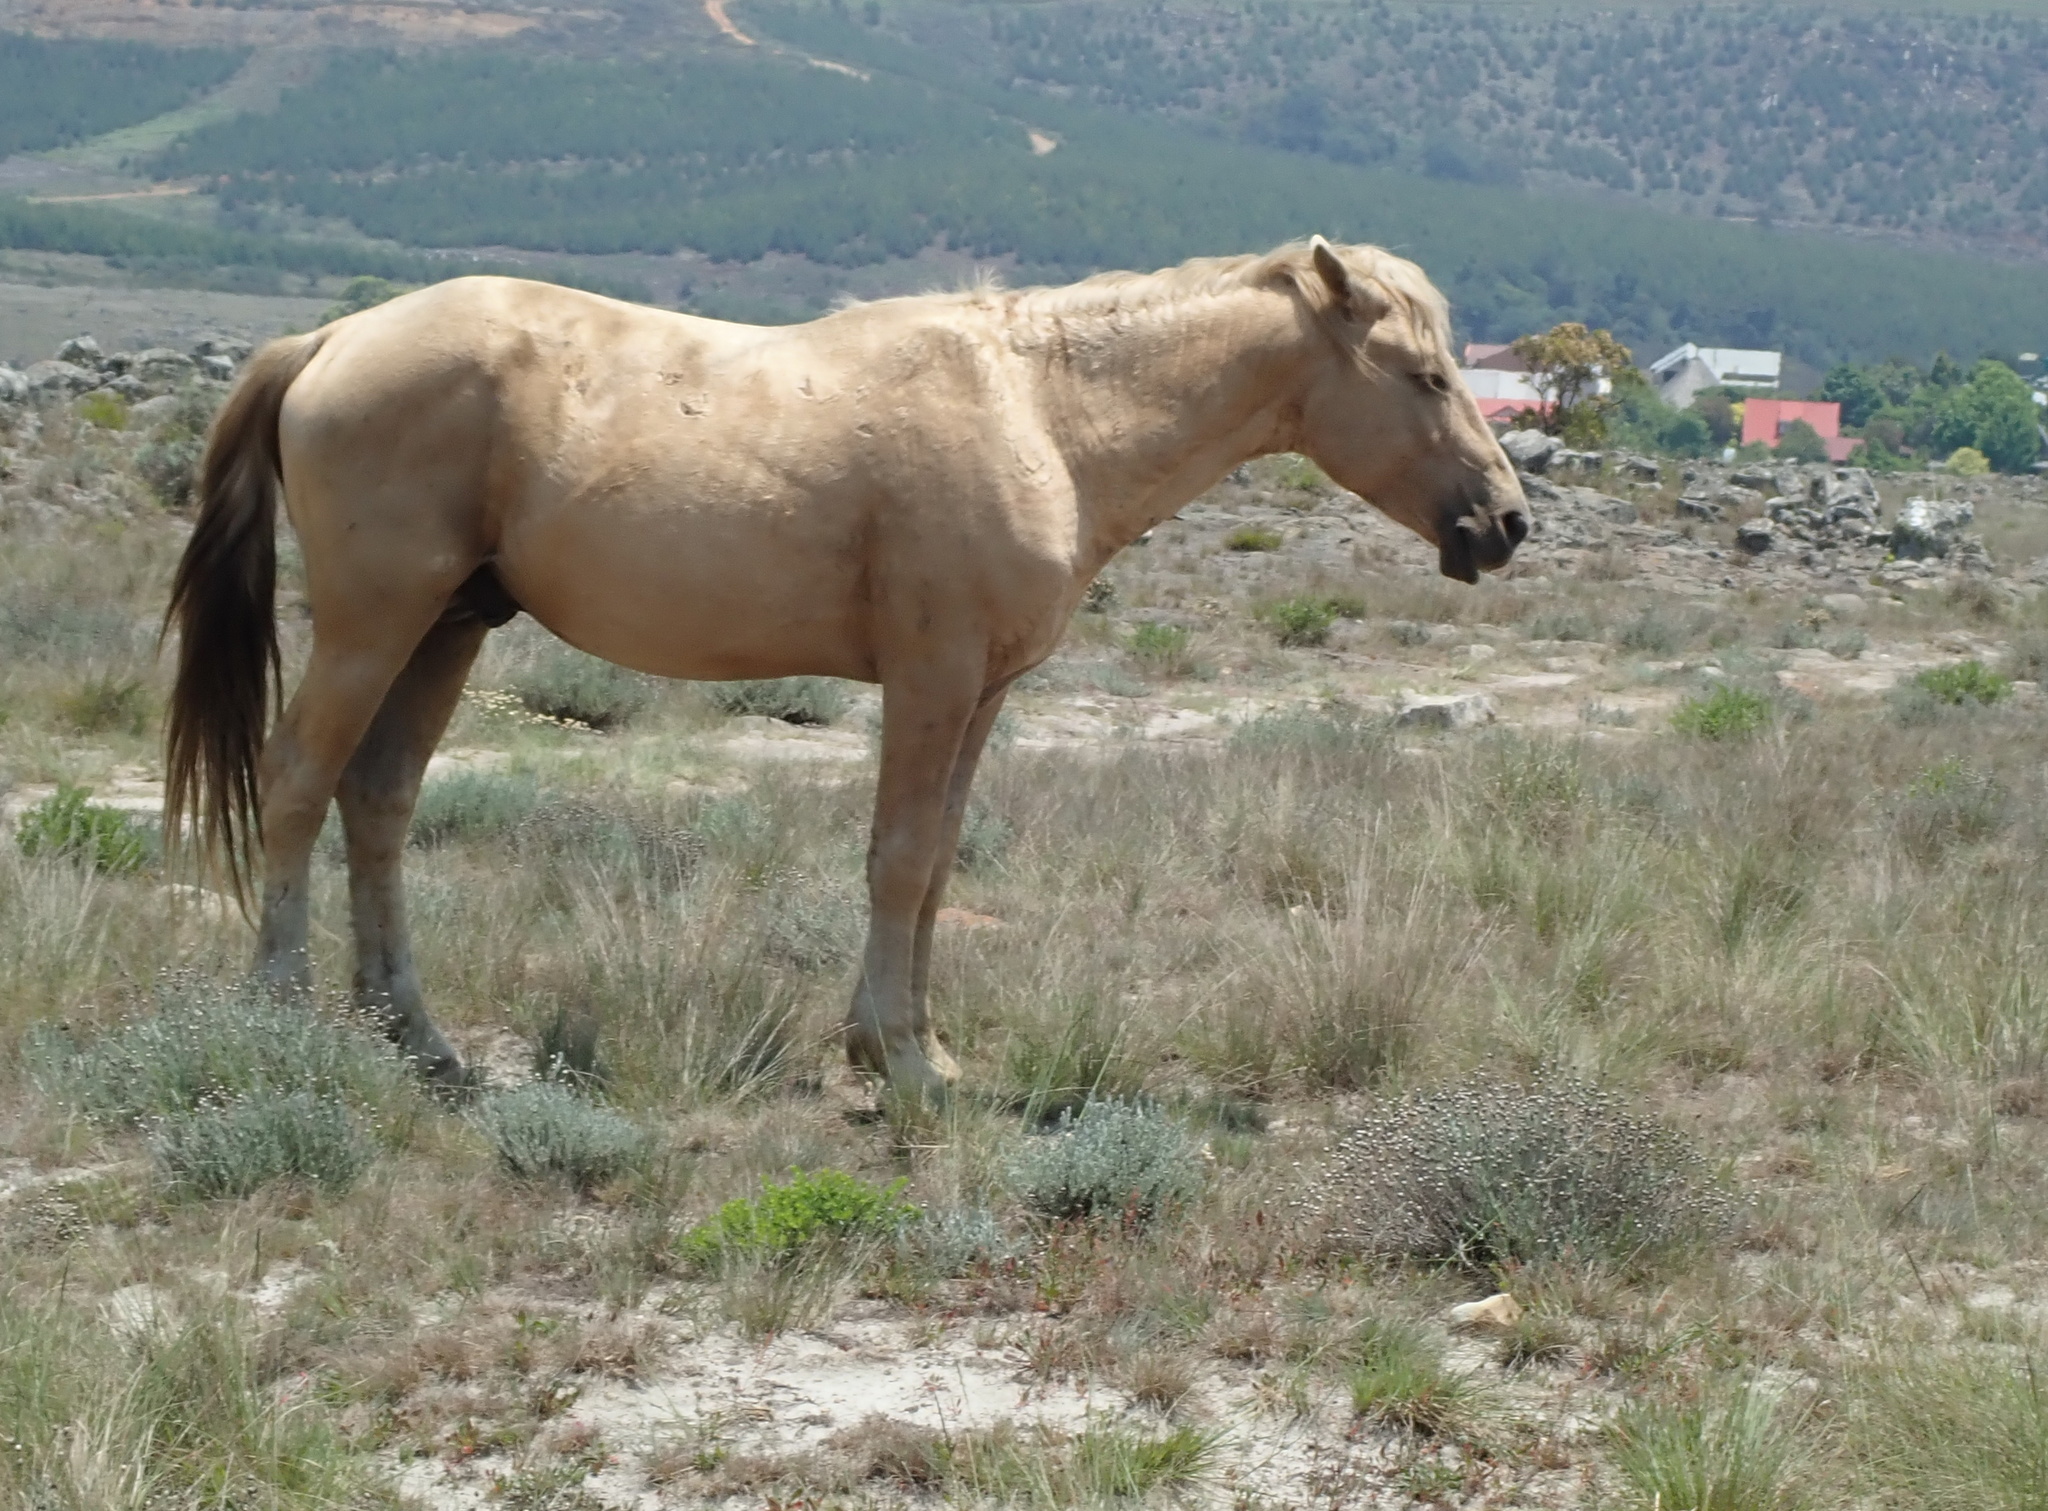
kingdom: Animalia
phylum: Chordata
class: Mammalia
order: Perissodactyla
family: Equidae
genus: Equus
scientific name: Equus caballus
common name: Horse
